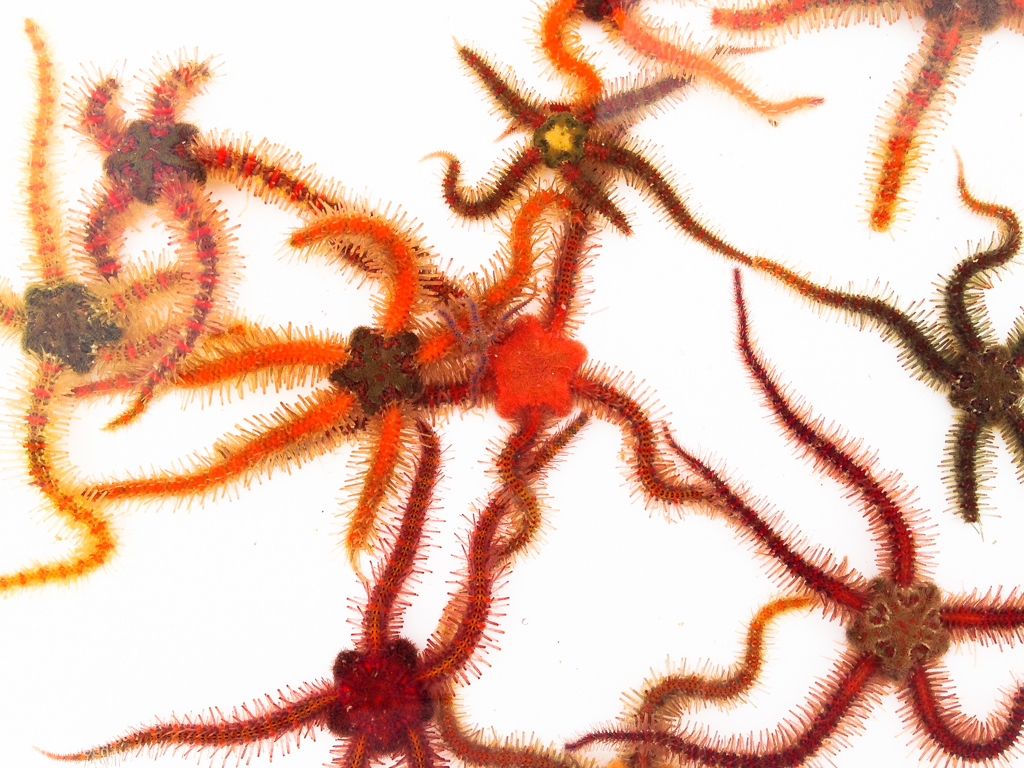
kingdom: Animalia
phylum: Echinodermata
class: Ophiuroidea
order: Amphilepidida
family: Ophiotrichidae
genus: Ophiothrix
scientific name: Ophiothrix spiculata
